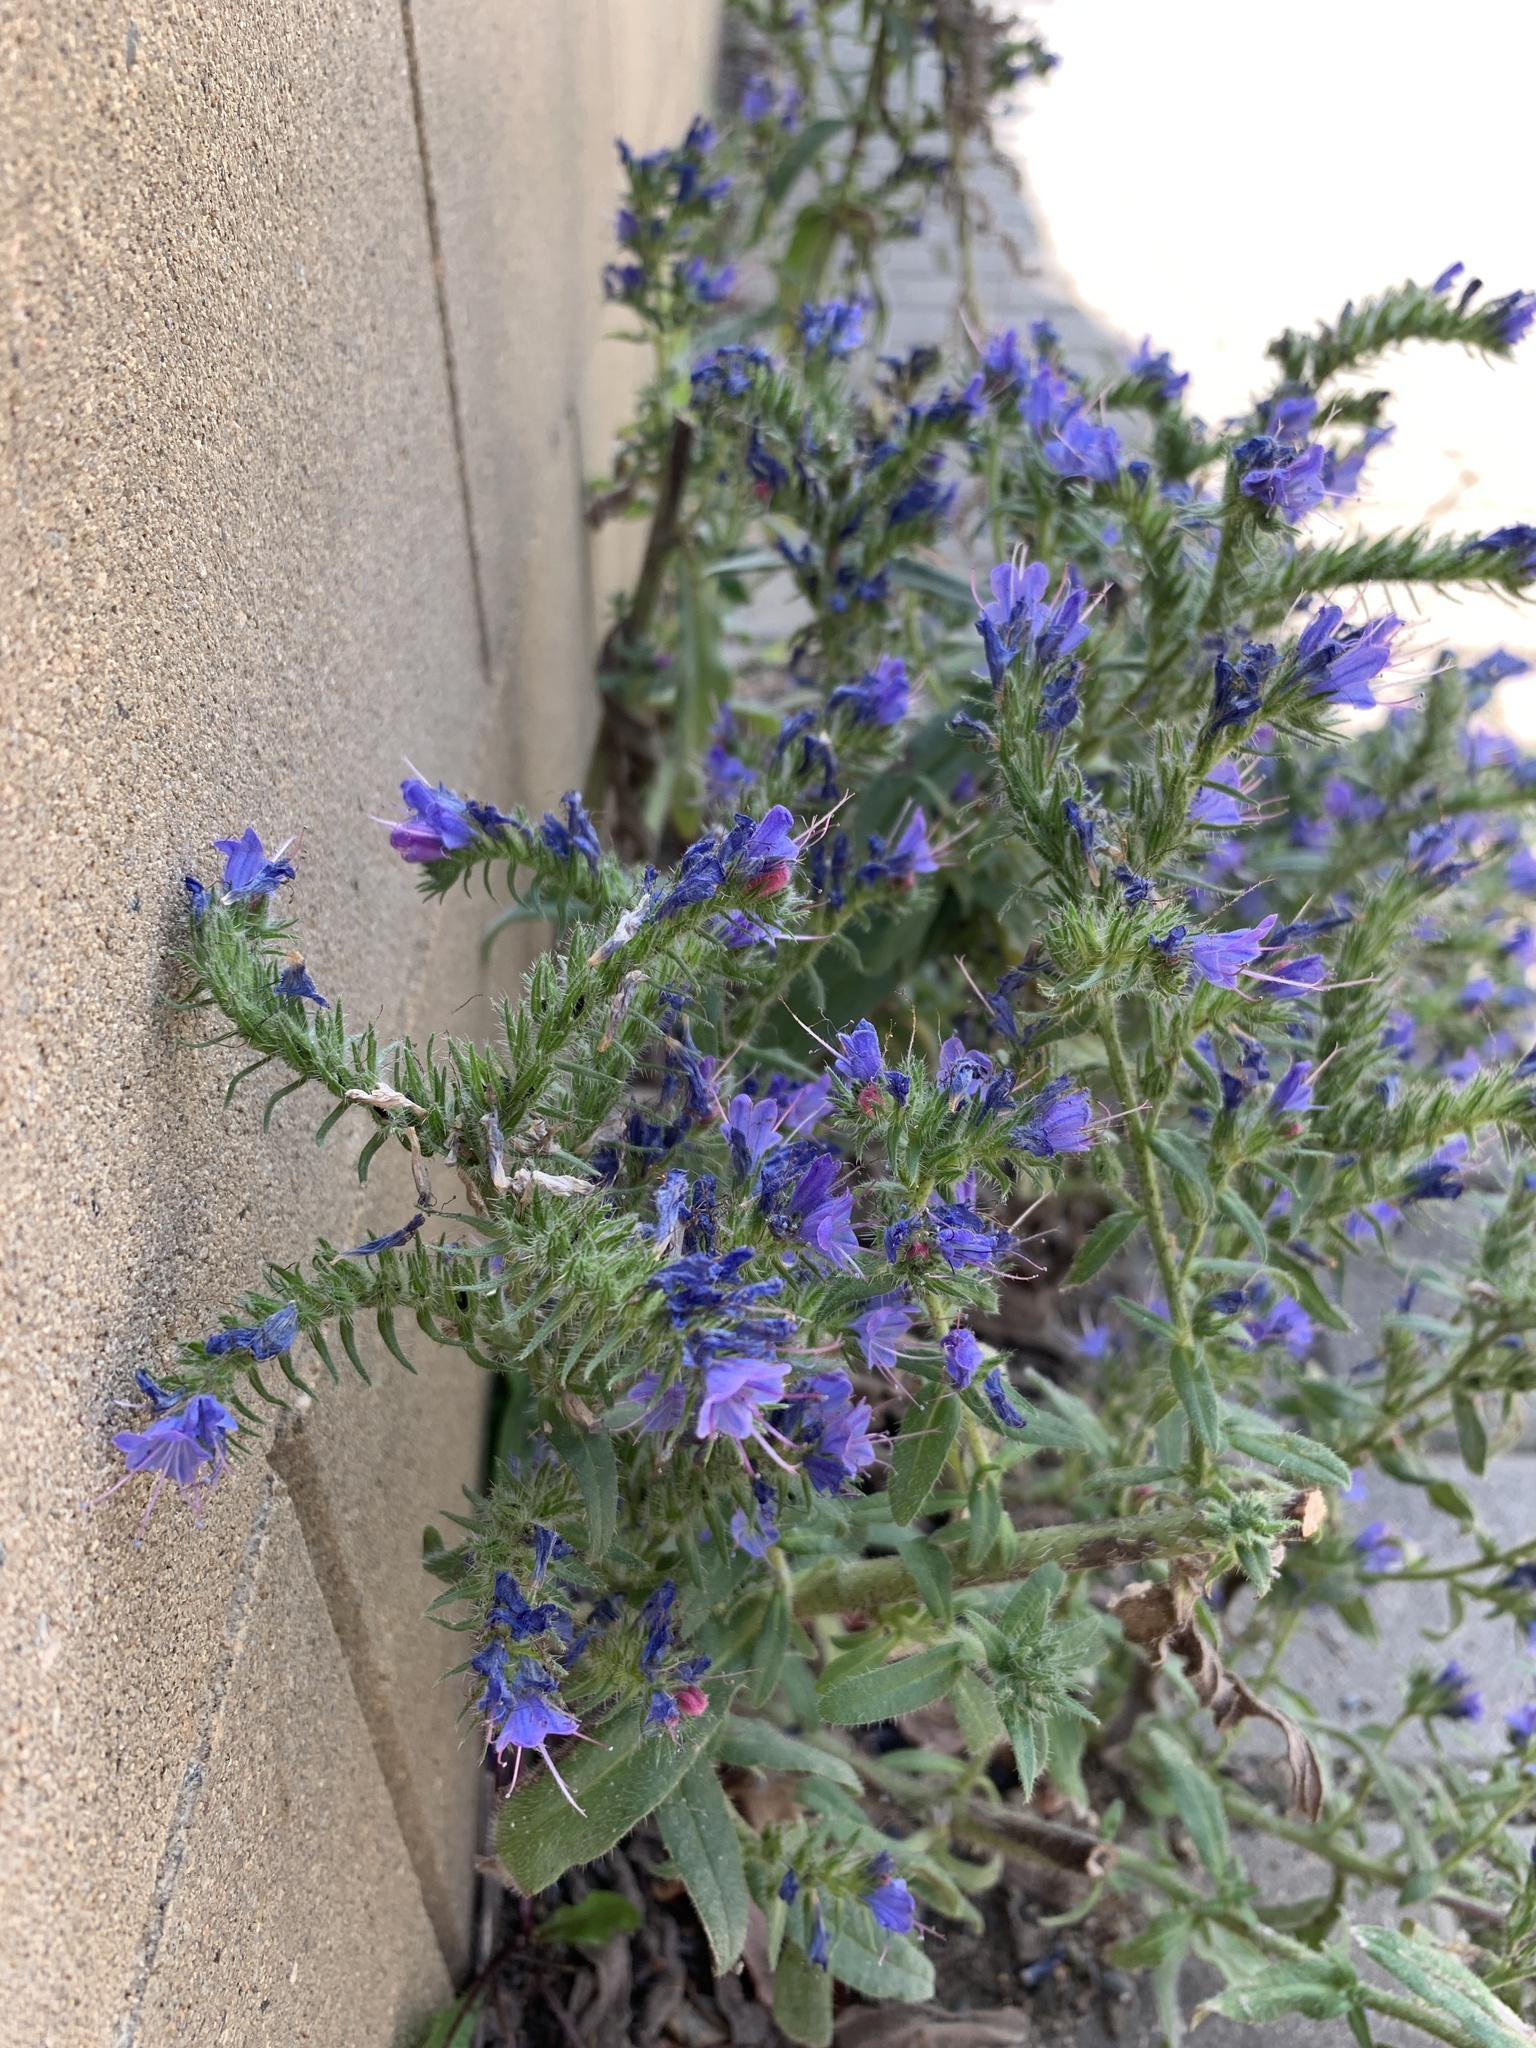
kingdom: Plantae
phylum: Tracheophyta
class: Magnoliopsida
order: Boraginales
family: Boraginaceae
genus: Echium
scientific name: Echium vulgare
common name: Common viper's bugloss
